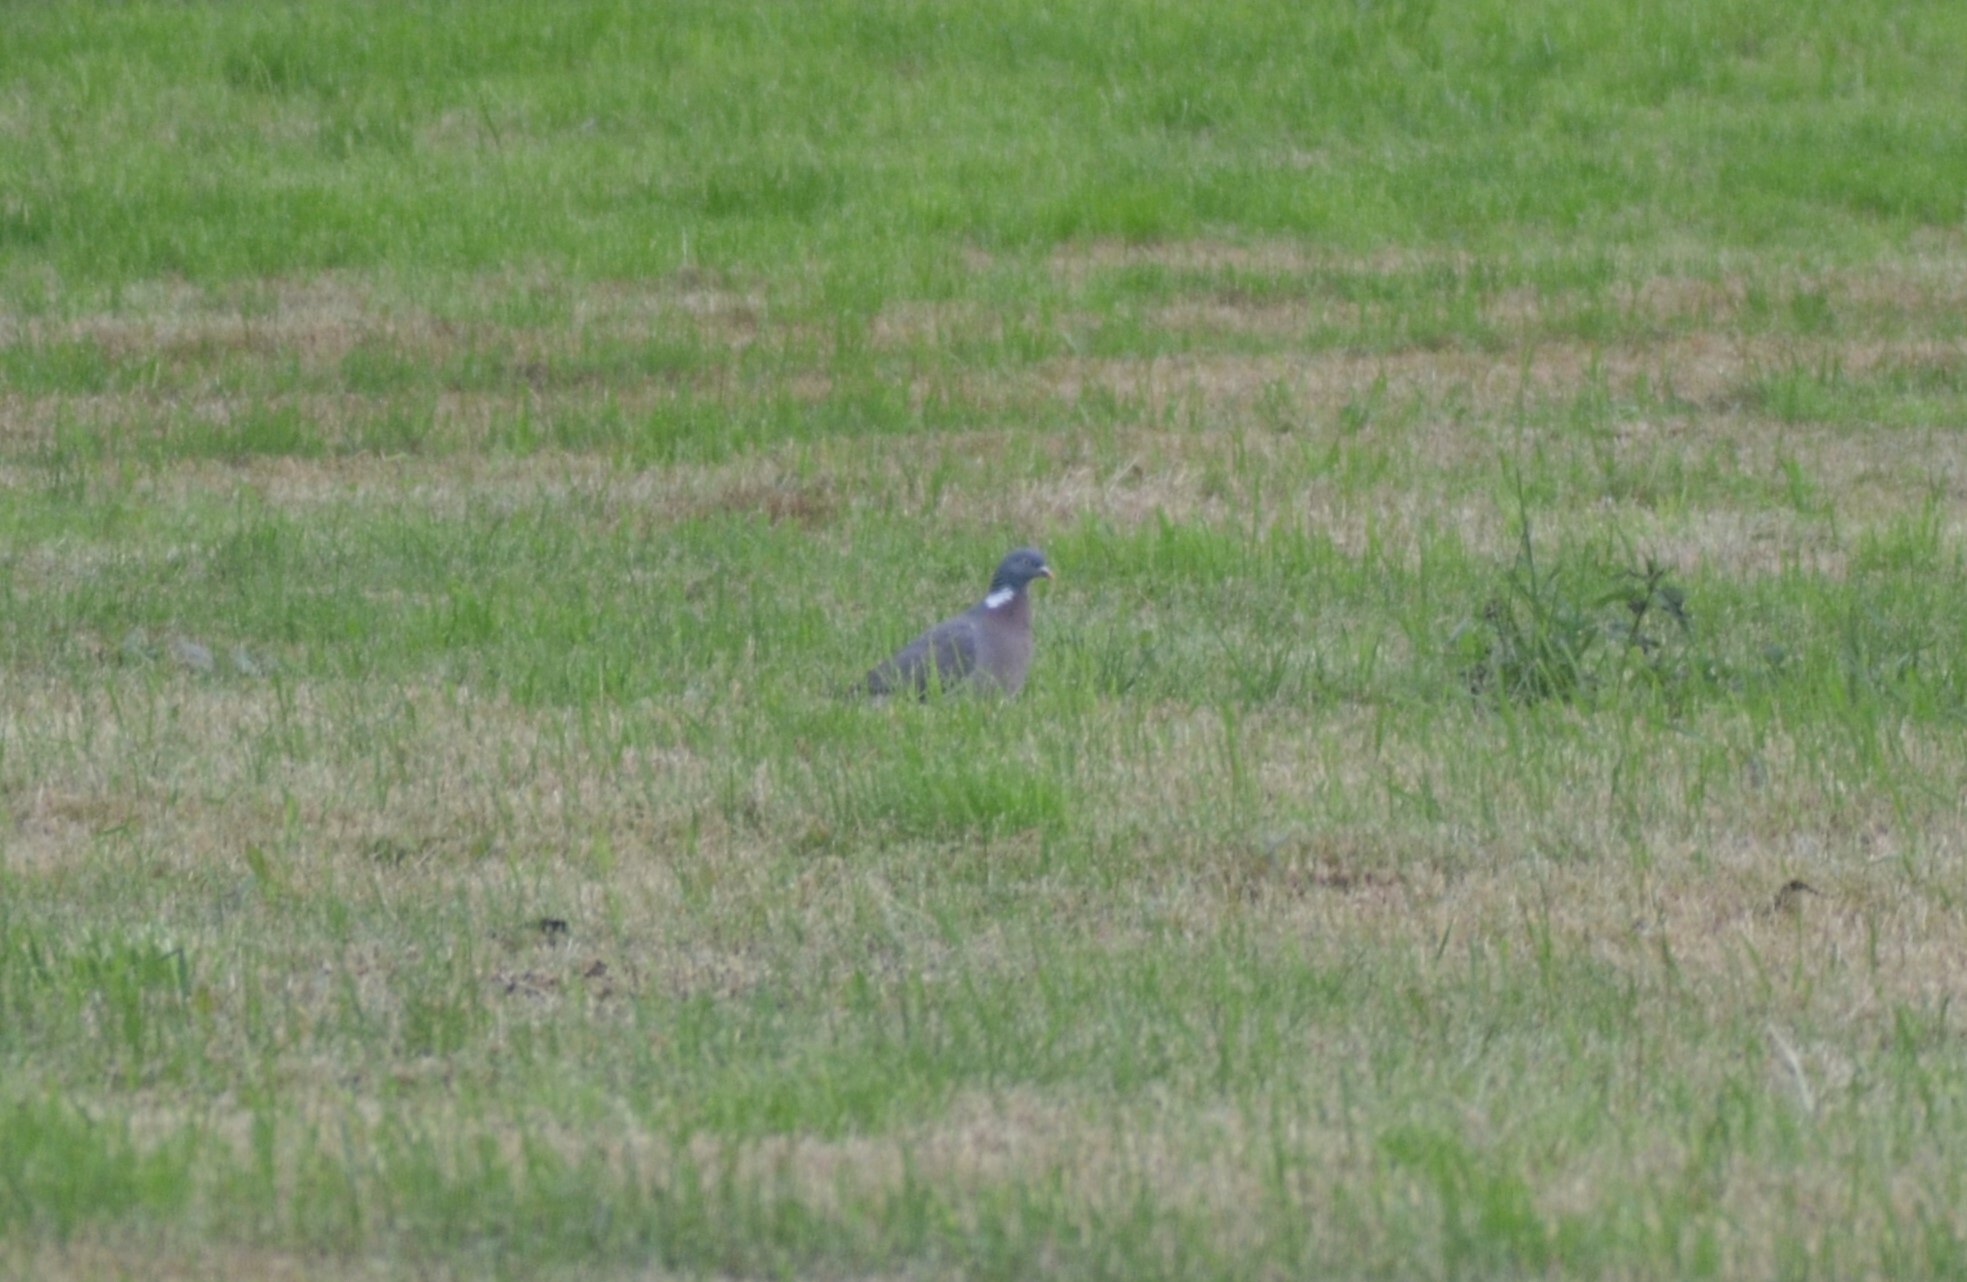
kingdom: Animalia
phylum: Chordata
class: Aves
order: Columbiformes
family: Columbidae
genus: Columba
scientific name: Columba palumbus
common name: Common wood pigeon
